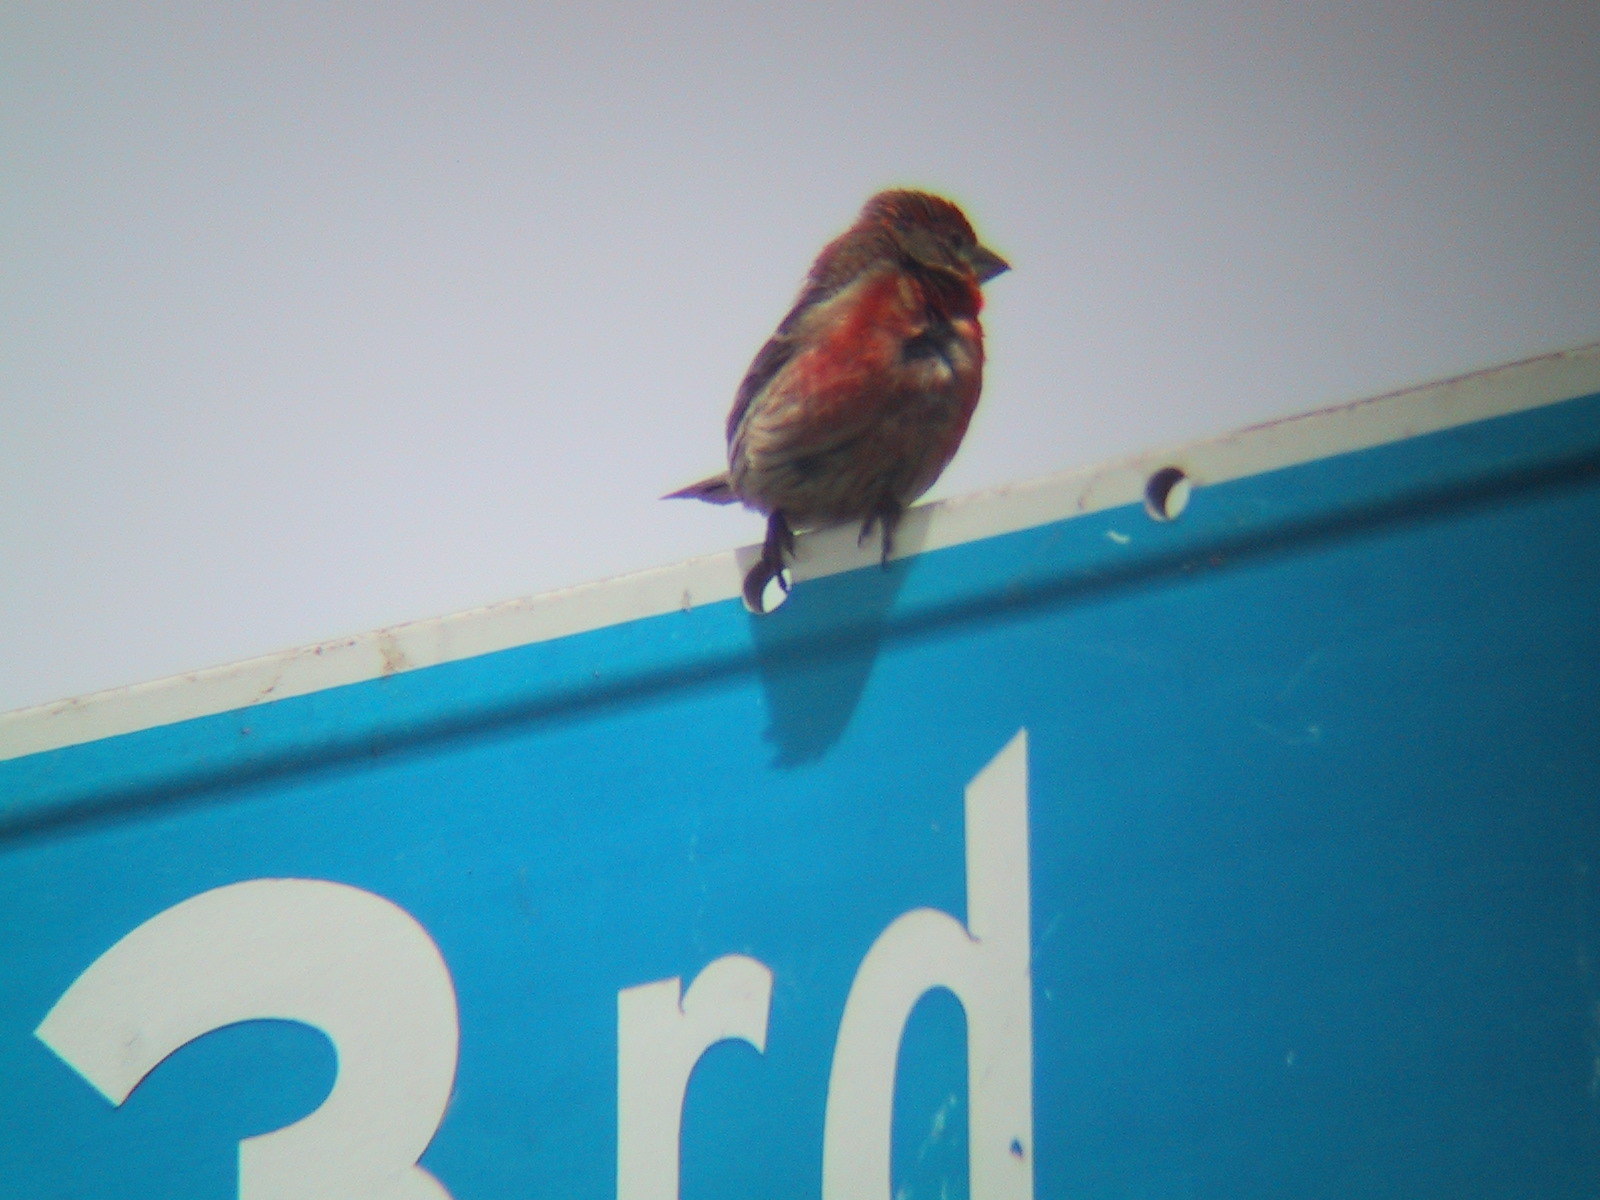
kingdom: Animalia
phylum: Chordata
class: Aves
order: Passeriformes
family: Fringillidae
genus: Haemorhous
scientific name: Haemorhous mexicanus
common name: House finch
